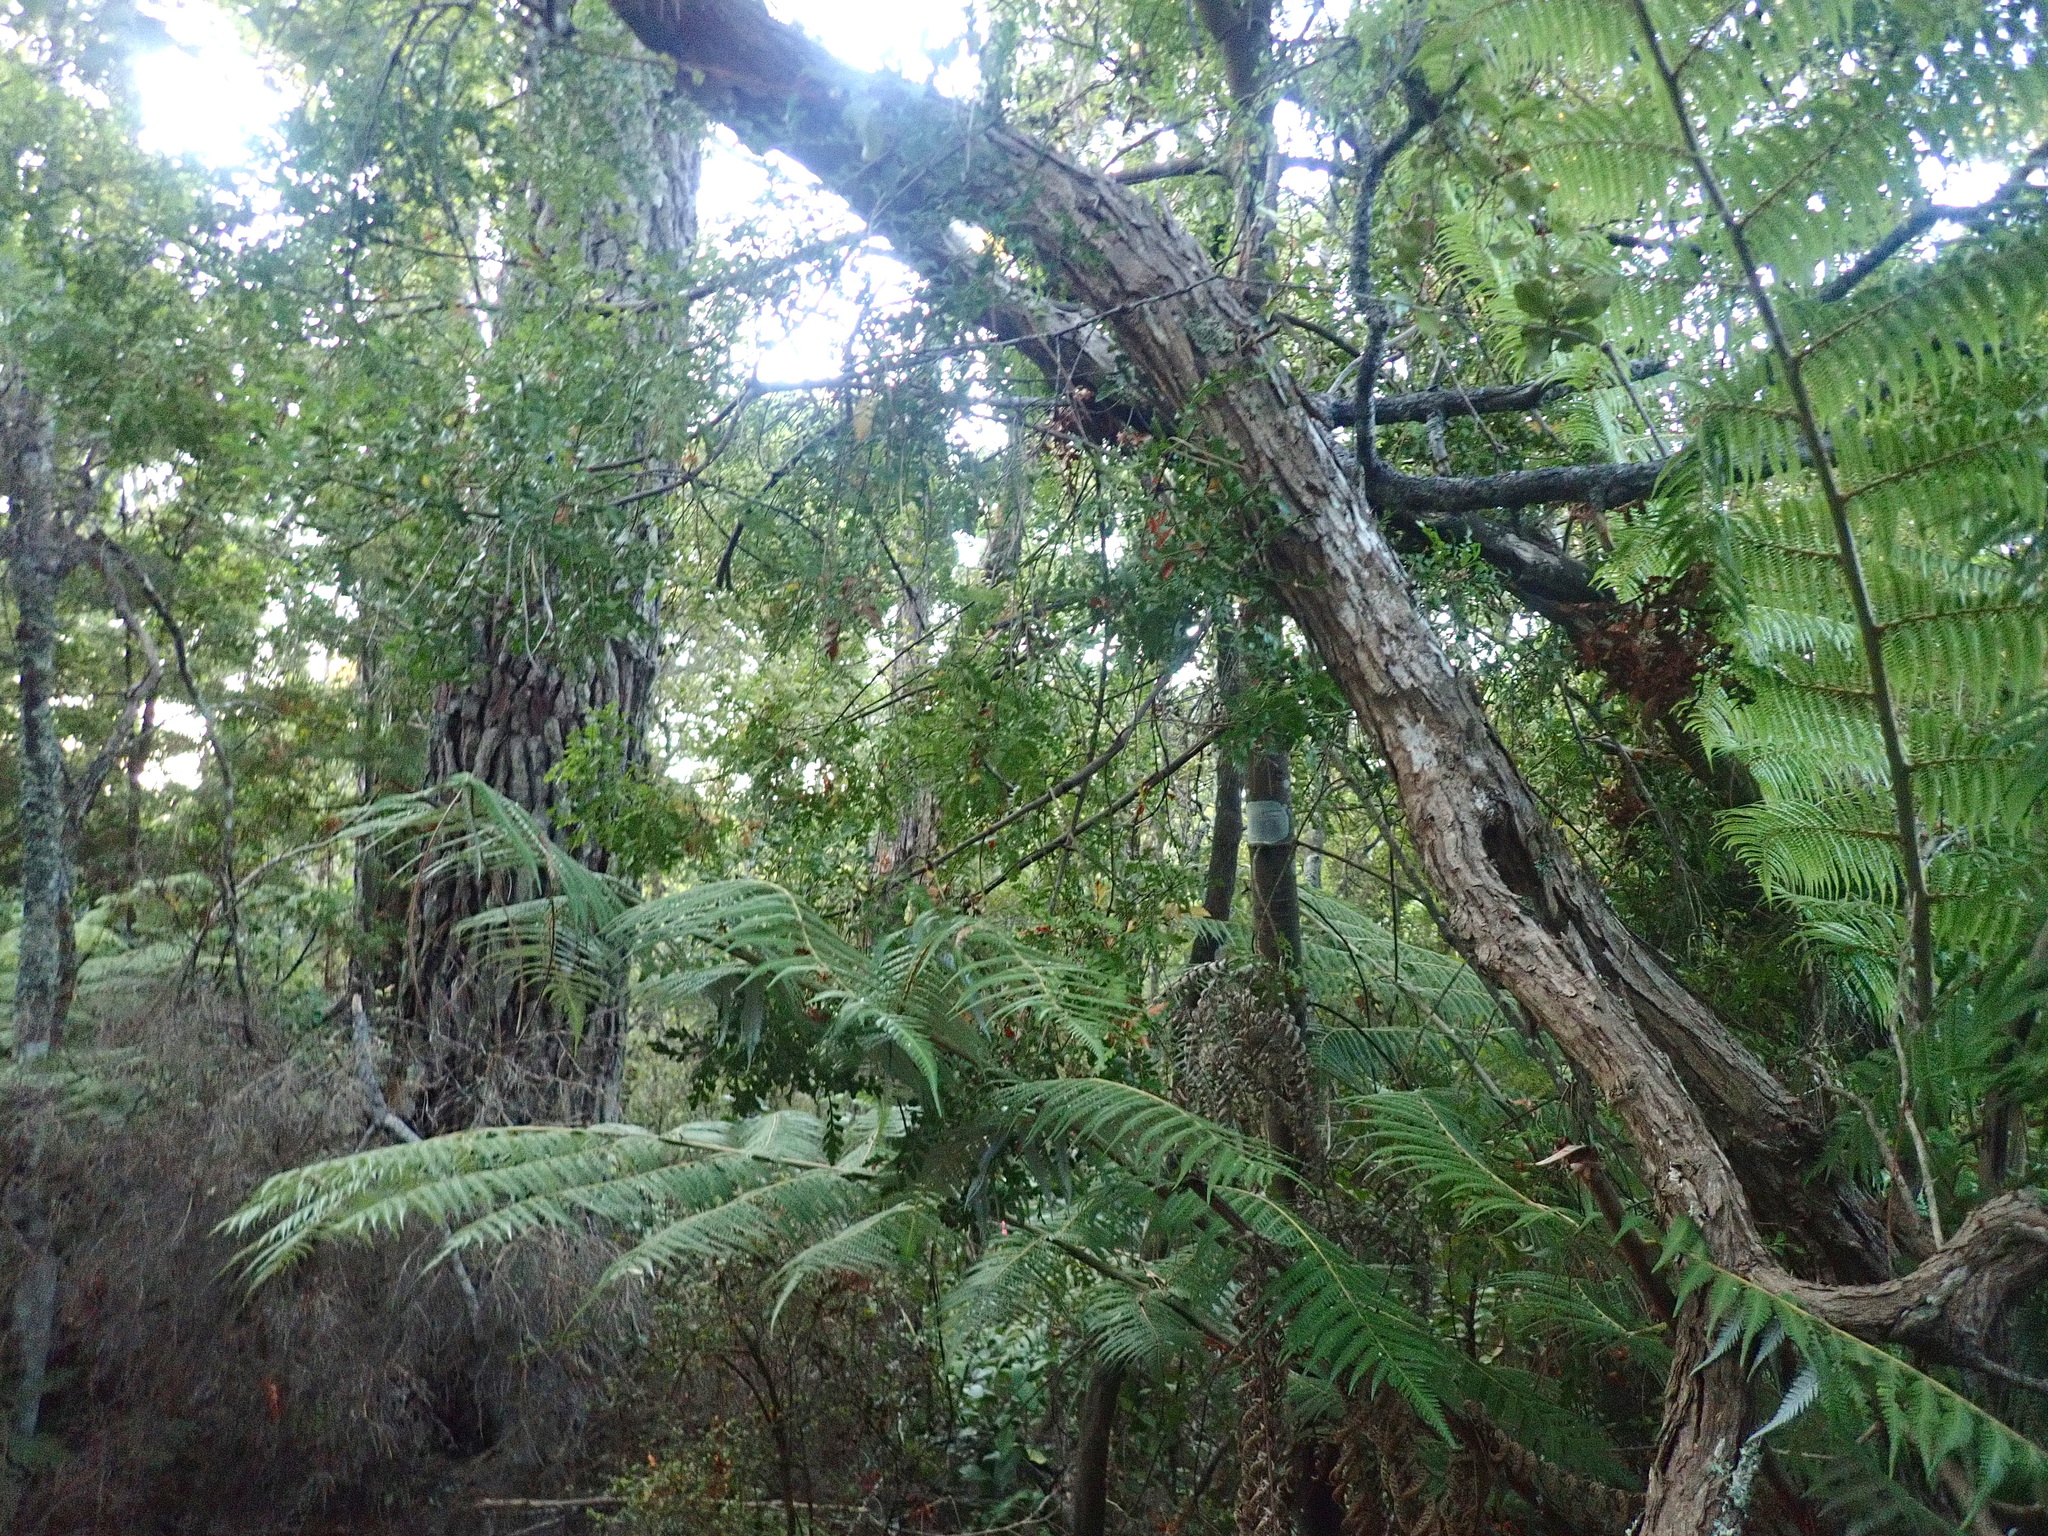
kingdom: Plantae
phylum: Tracheophyta
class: Polypodiopsida
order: Cyatheales
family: Cyatheaceae
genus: Alsophila
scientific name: Alsophila dealbata
